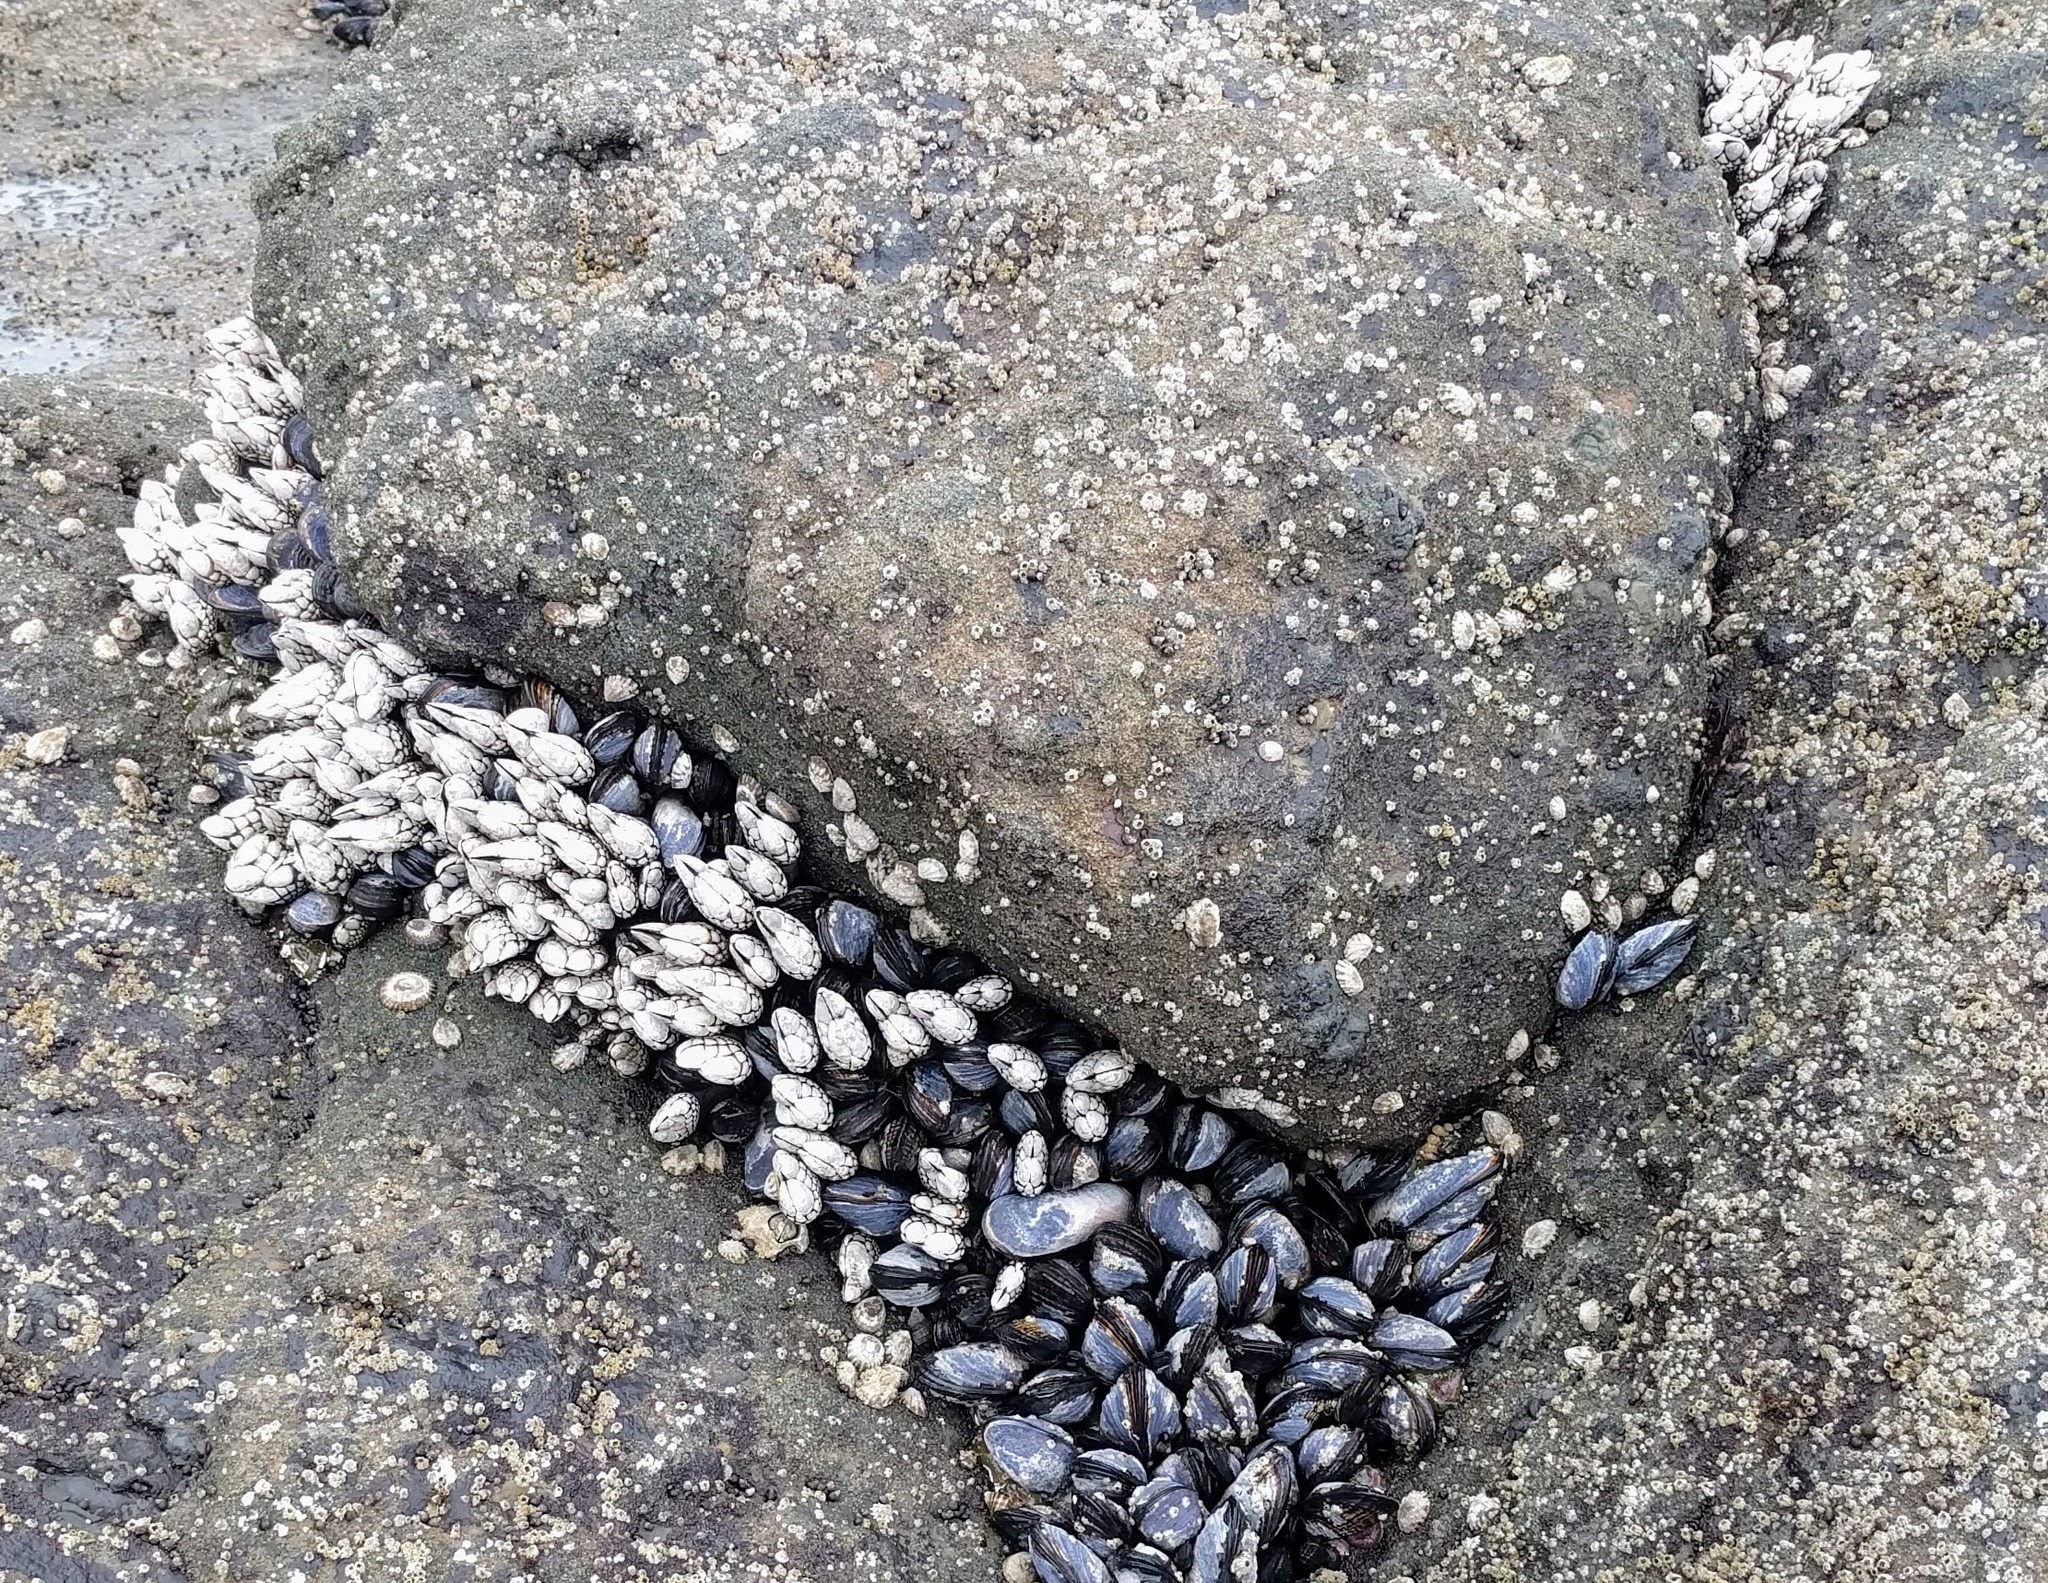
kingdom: Animalia
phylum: Arthropoda
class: Maxillopoda
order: Pedunculata
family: Pollicipedidae
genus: Pollicipes
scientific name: Pollicipes polymerus
